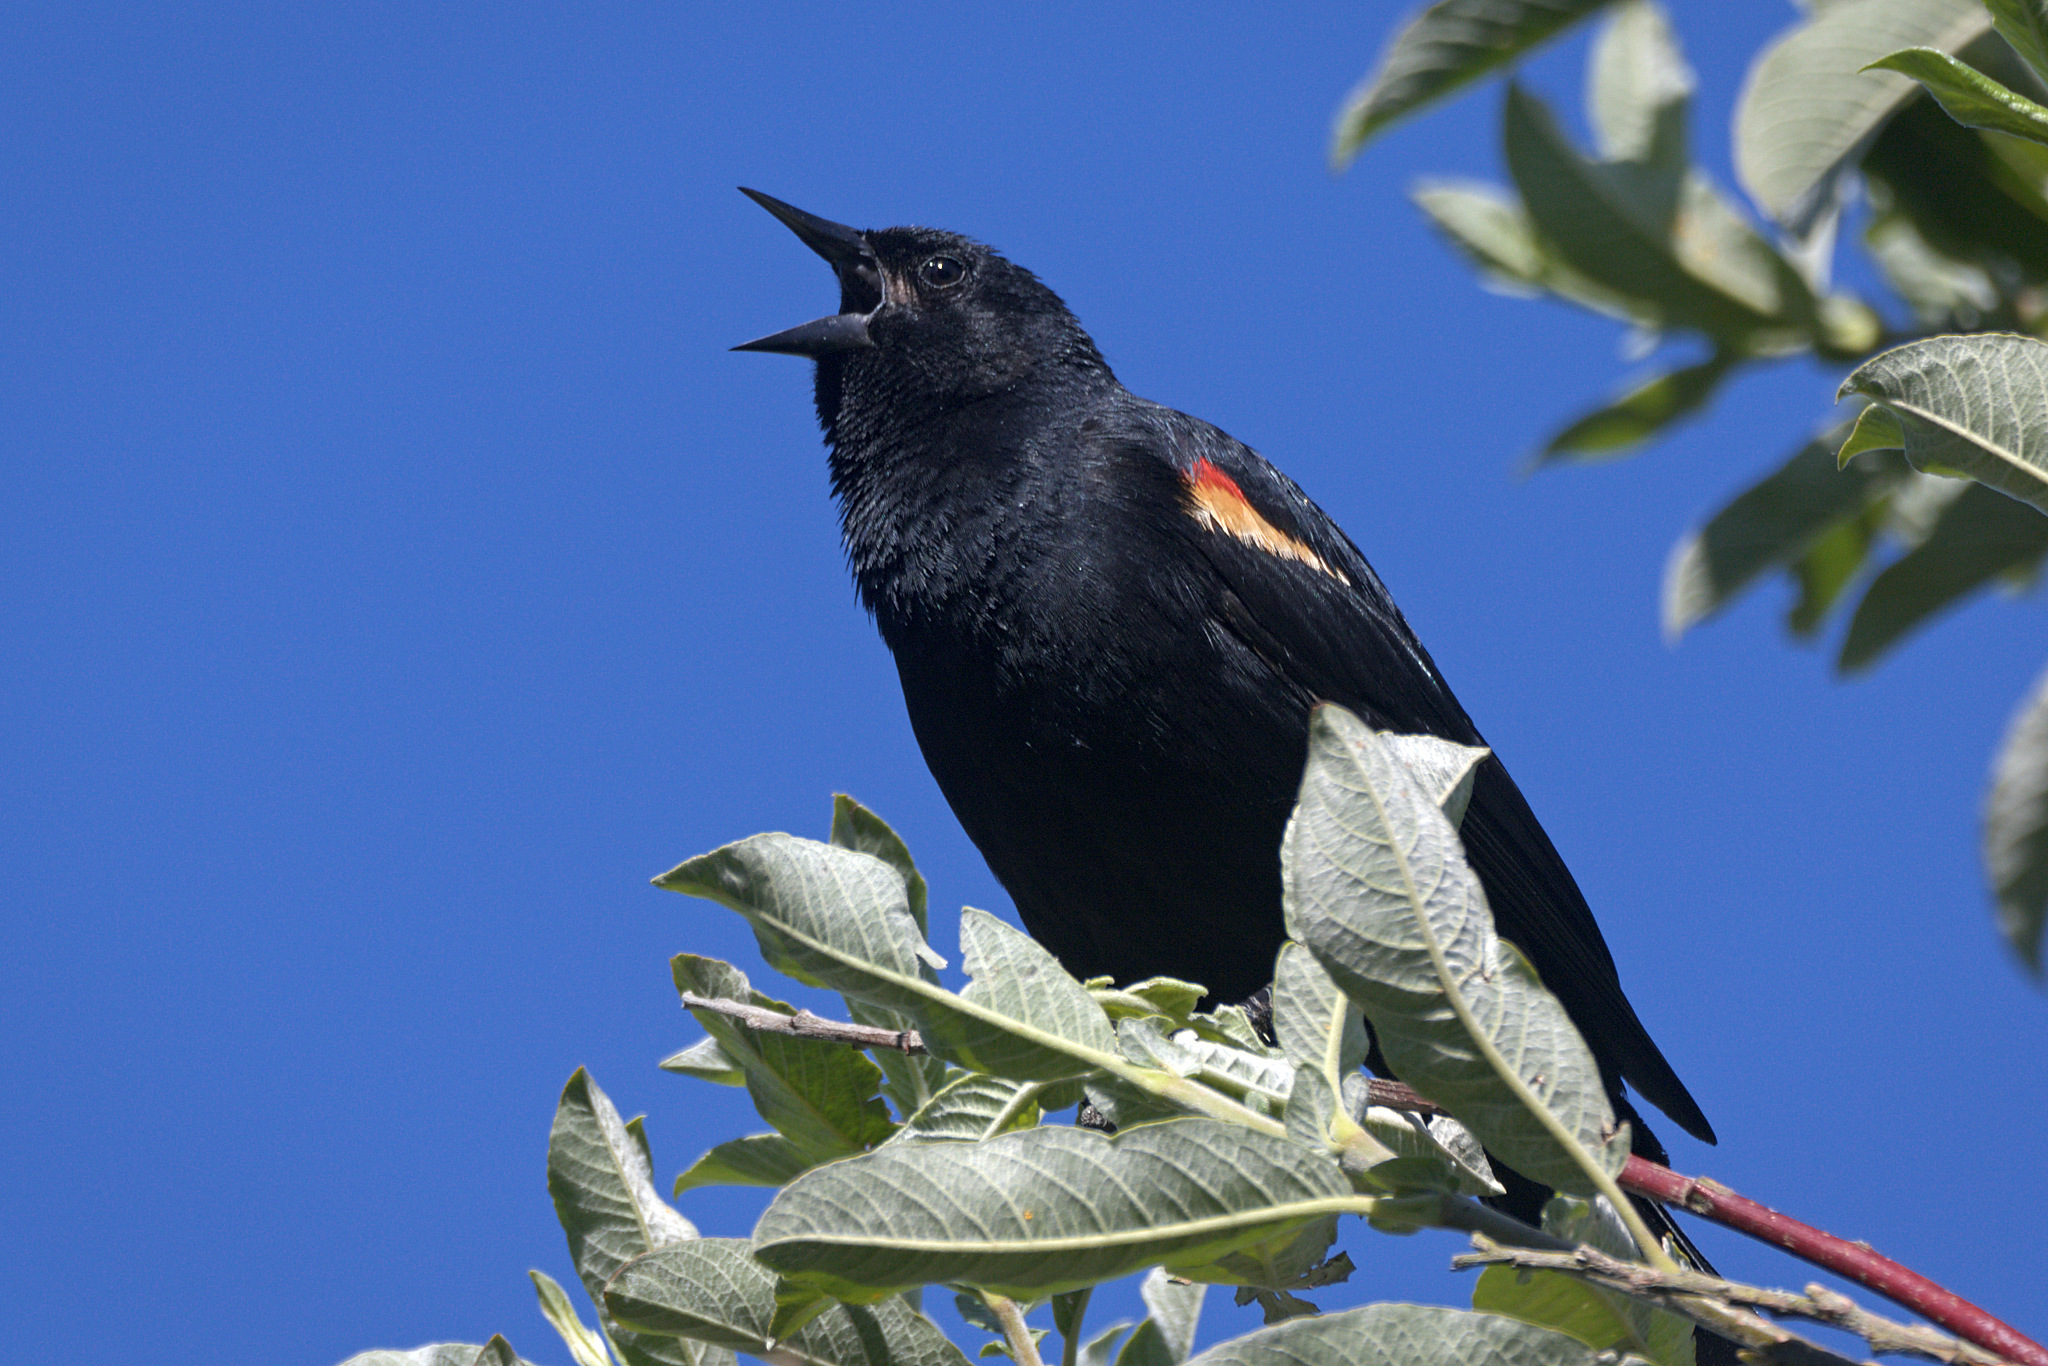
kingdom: Animalia
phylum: Chordata
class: Aves
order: Passeriformes
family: Icteridae
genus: Agelaius
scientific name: Agelaius phoeniceus
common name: Red-winged blackbird
